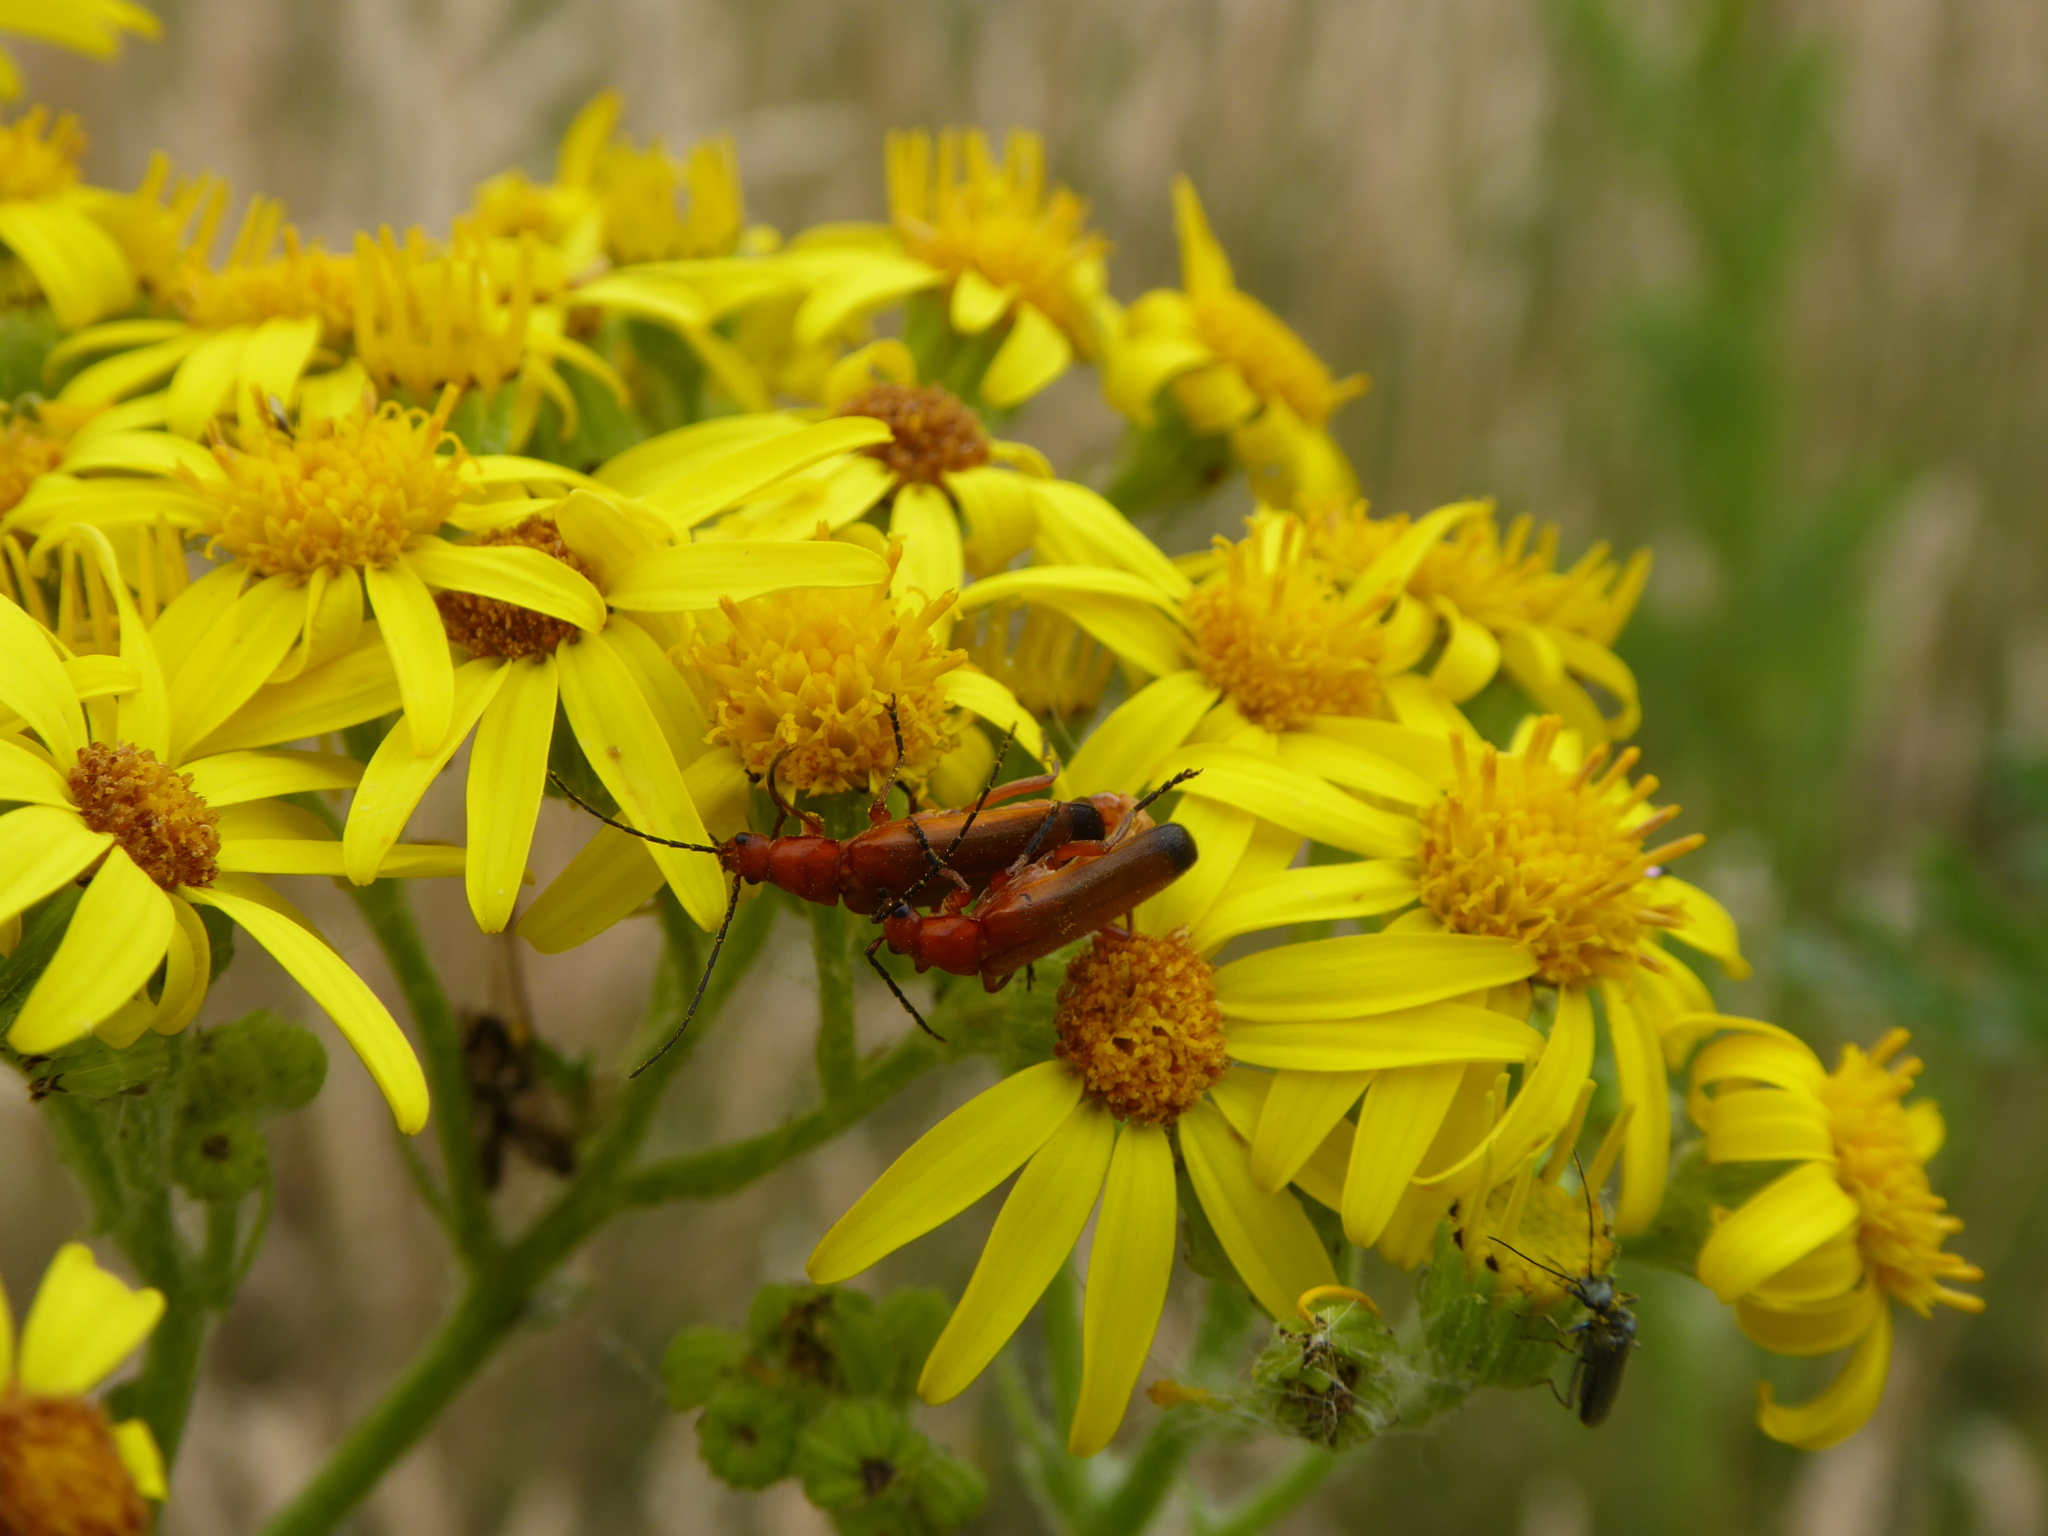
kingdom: Animalia
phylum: Arthropoda
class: Insecta
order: Coleoptera
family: Cantharidae
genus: Rhagonycha
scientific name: Rhagonycha fulva
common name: Common red soldier beetle
